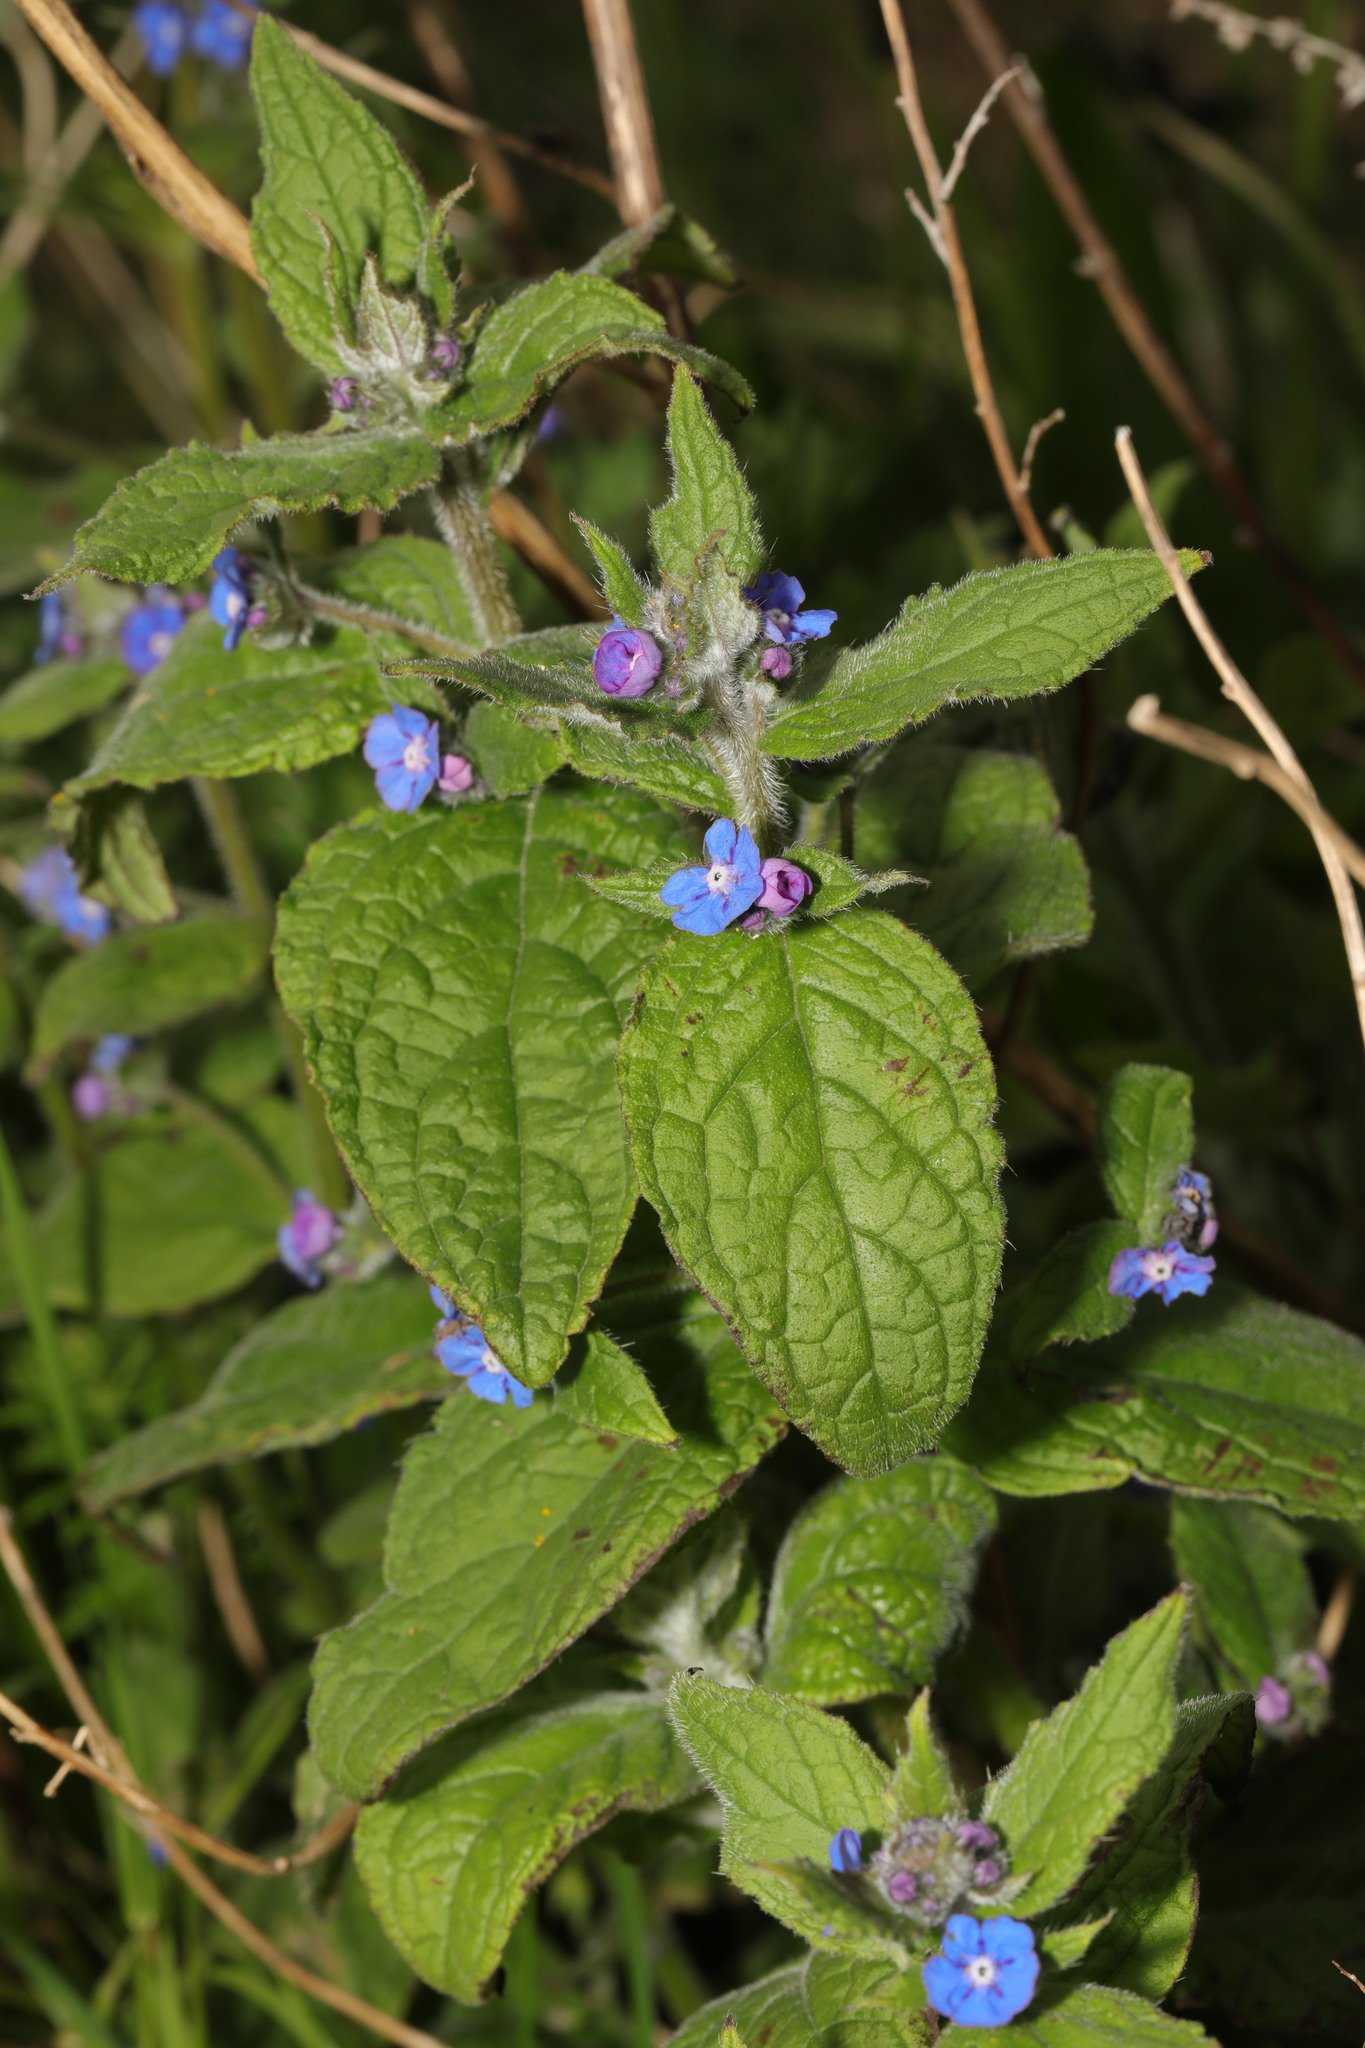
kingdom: Plantae
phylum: Tracheophyta
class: Magnoliopsida
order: Boraginales
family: Boraginaceae
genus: Pentaglottis
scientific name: Pentaglottis sempervirens
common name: Green alkanet
